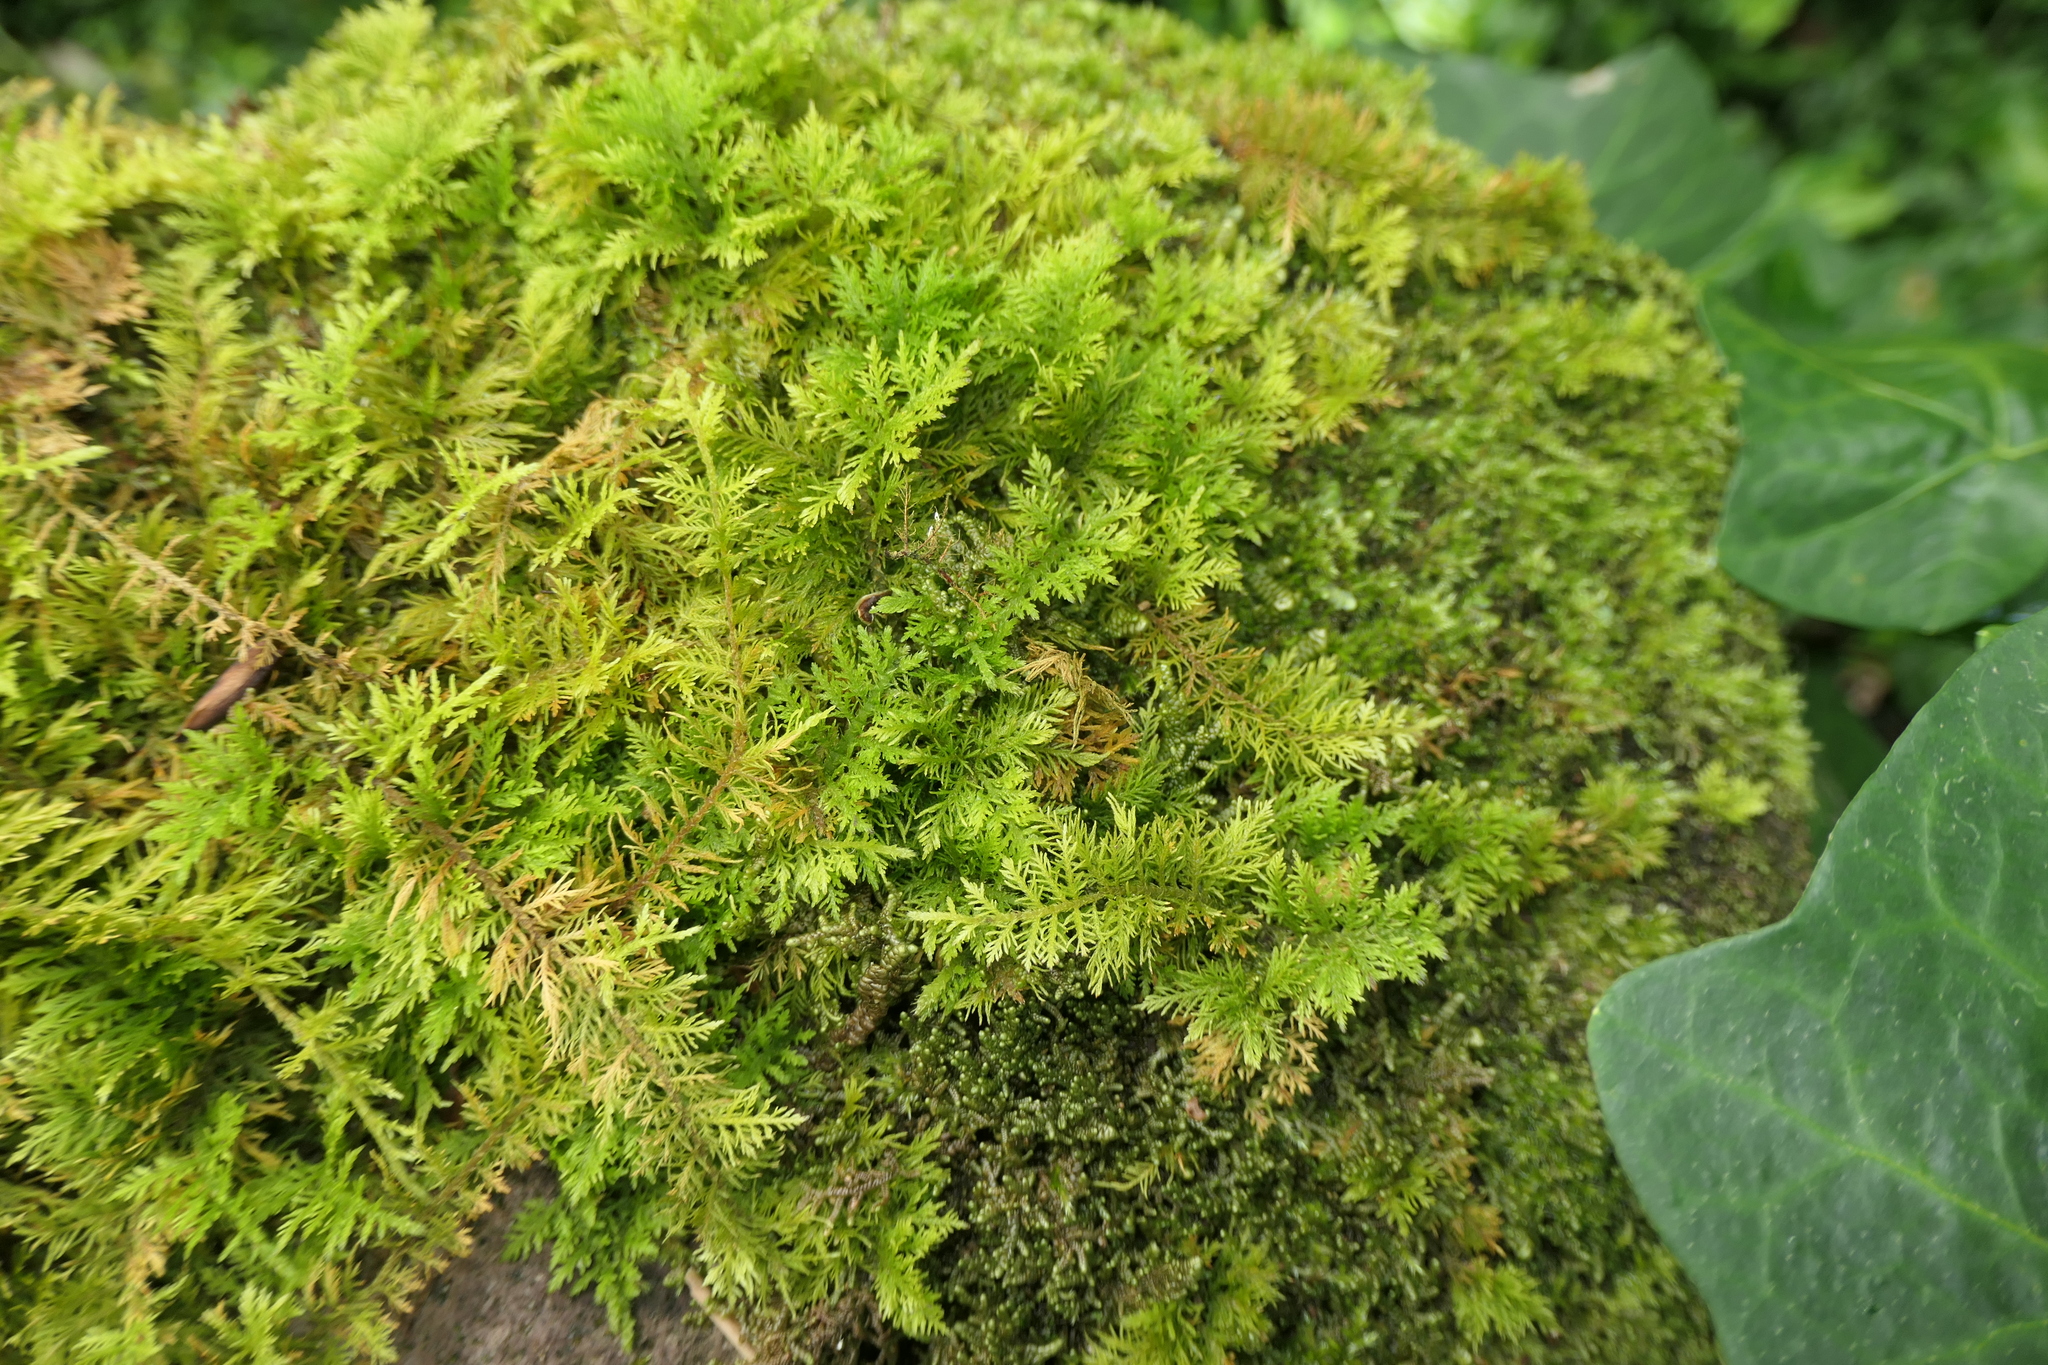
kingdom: Plantae
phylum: Bryophyta
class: Bryopsida
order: Hypnales
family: Thuidiaceae
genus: Thuidium
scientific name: Thuidium tamariscinum
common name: Common tamarisk-moss
